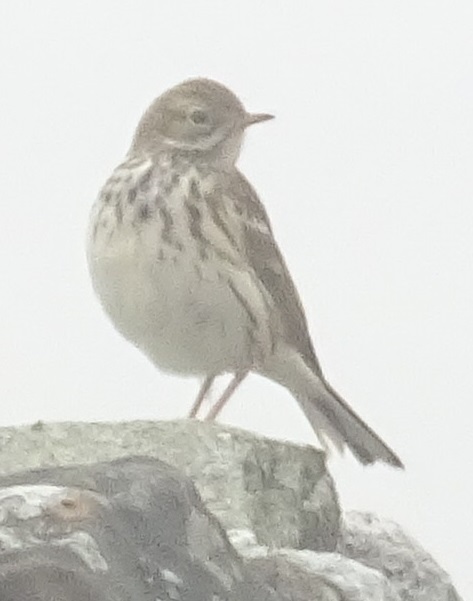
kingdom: Animalia
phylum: Chordata
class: Aves
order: Passeriformes
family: Motacillidae
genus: Anthus
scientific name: Anthus pratensis
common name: Meadow pipit
